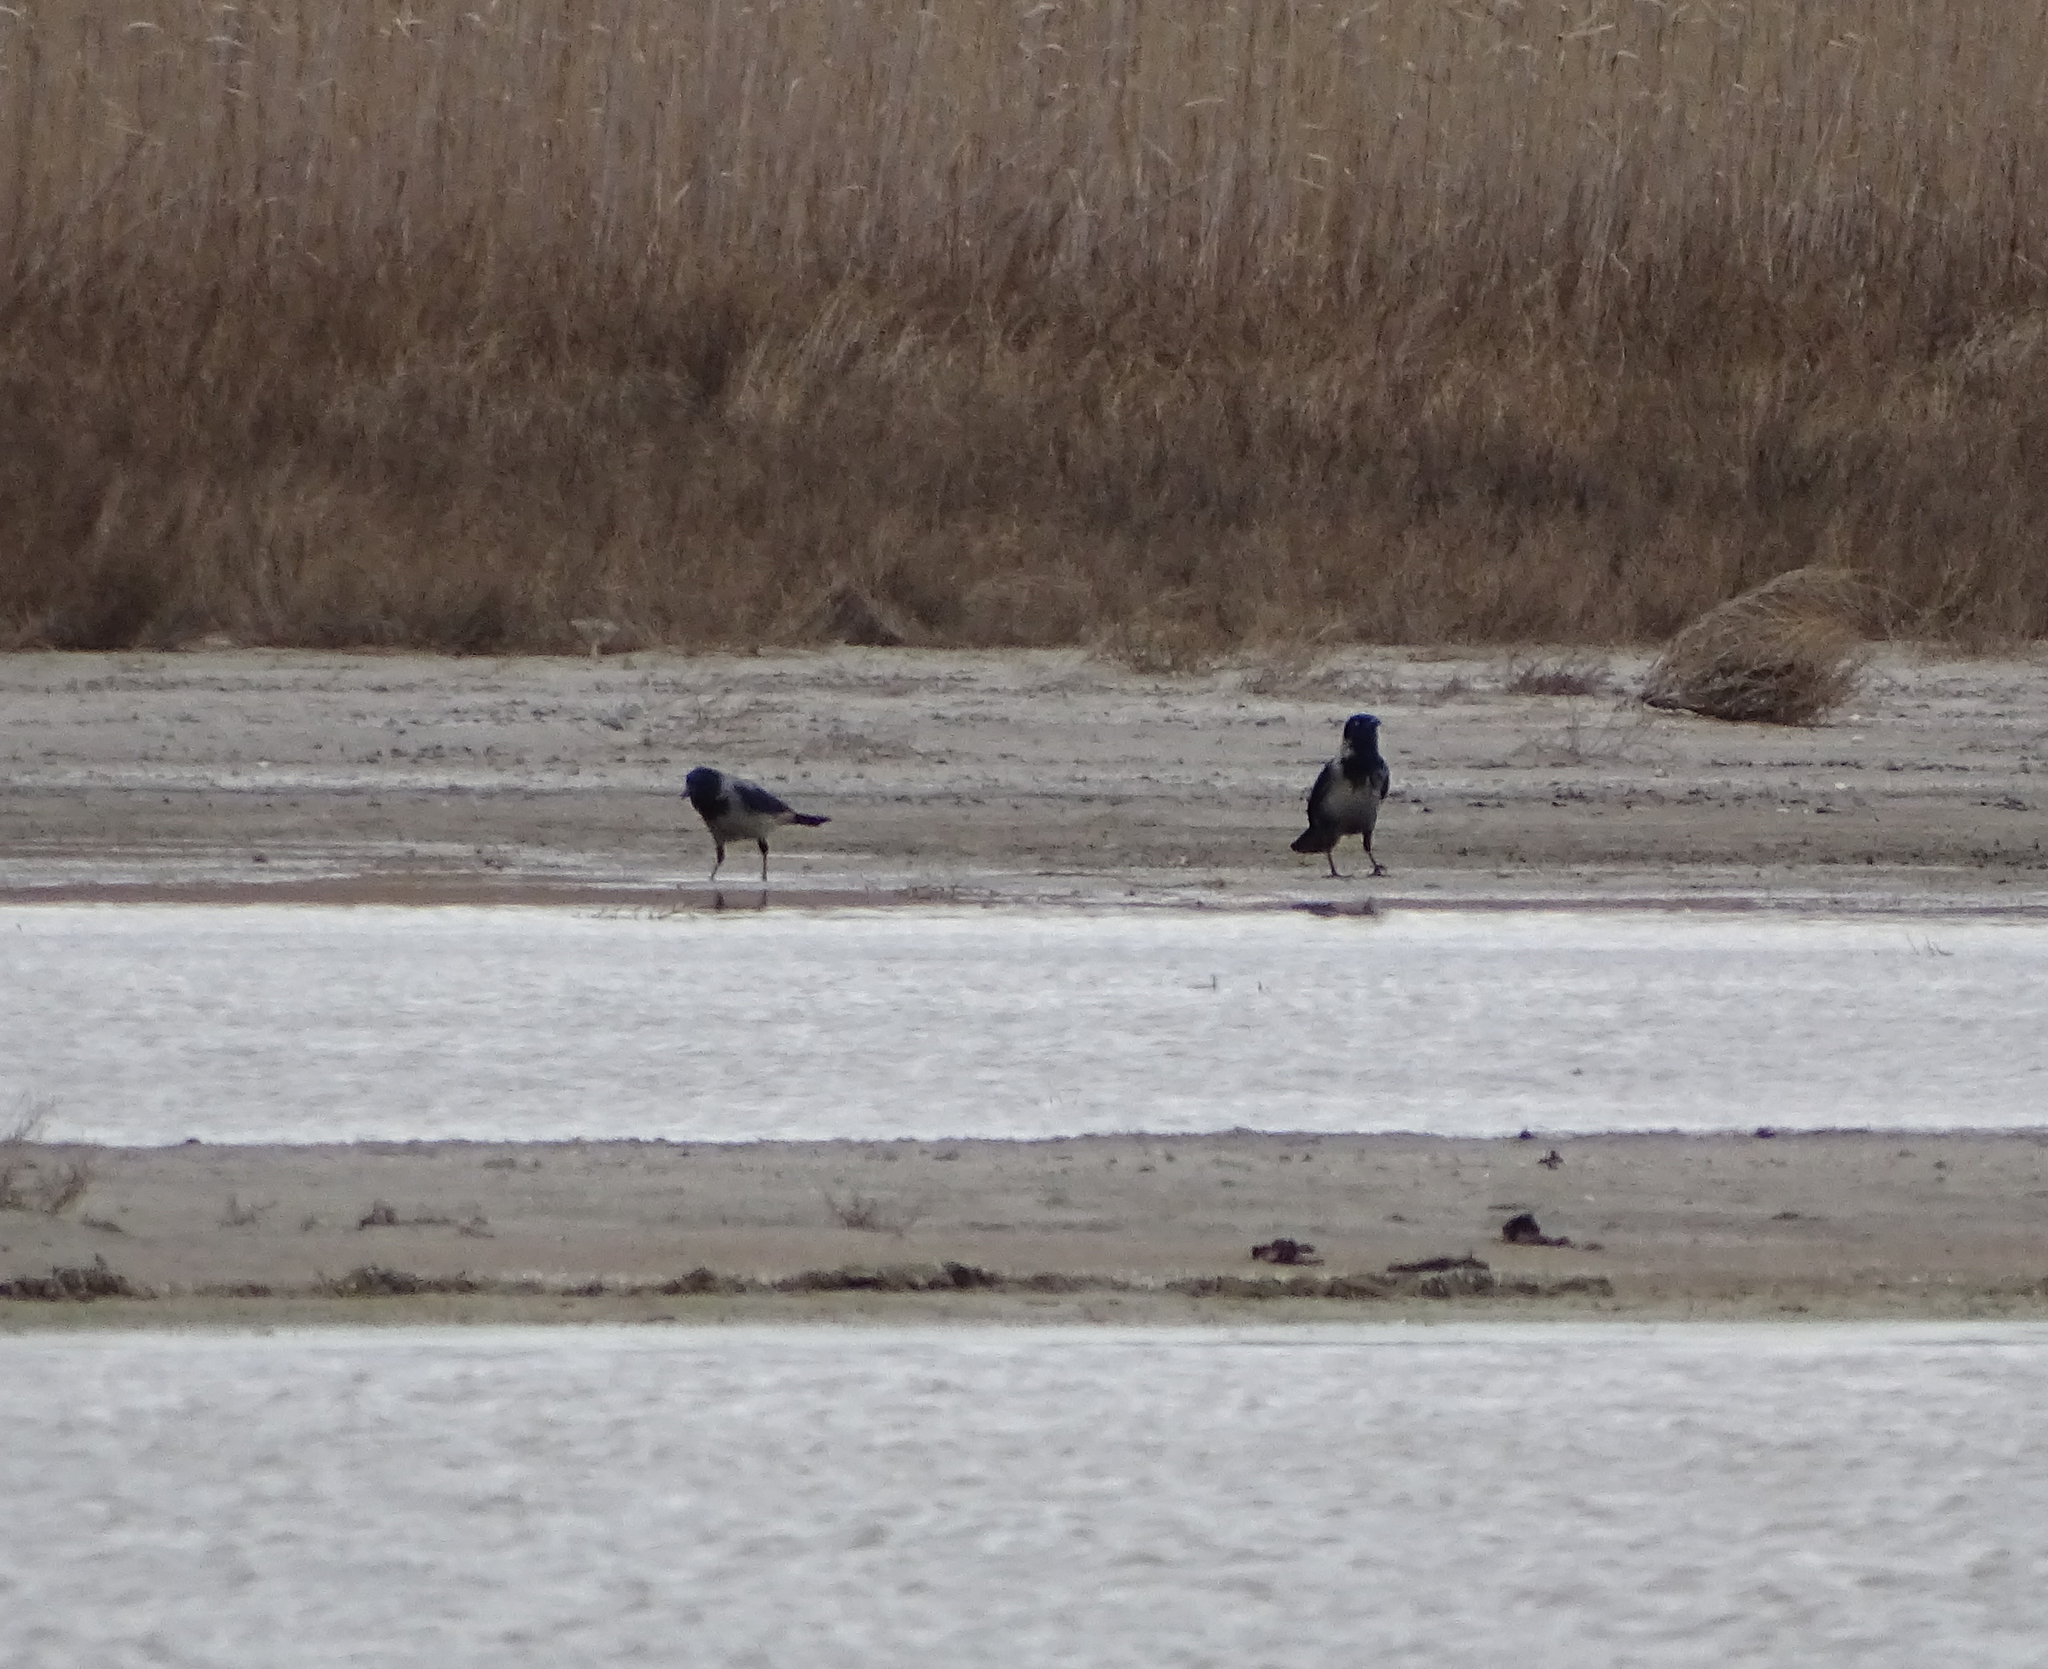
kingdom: Animalia
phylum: Chordata
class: Aves
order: Passeriformes
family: Corvidae
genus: Corvus
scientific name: Corvus cornix
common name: Hooded crow
